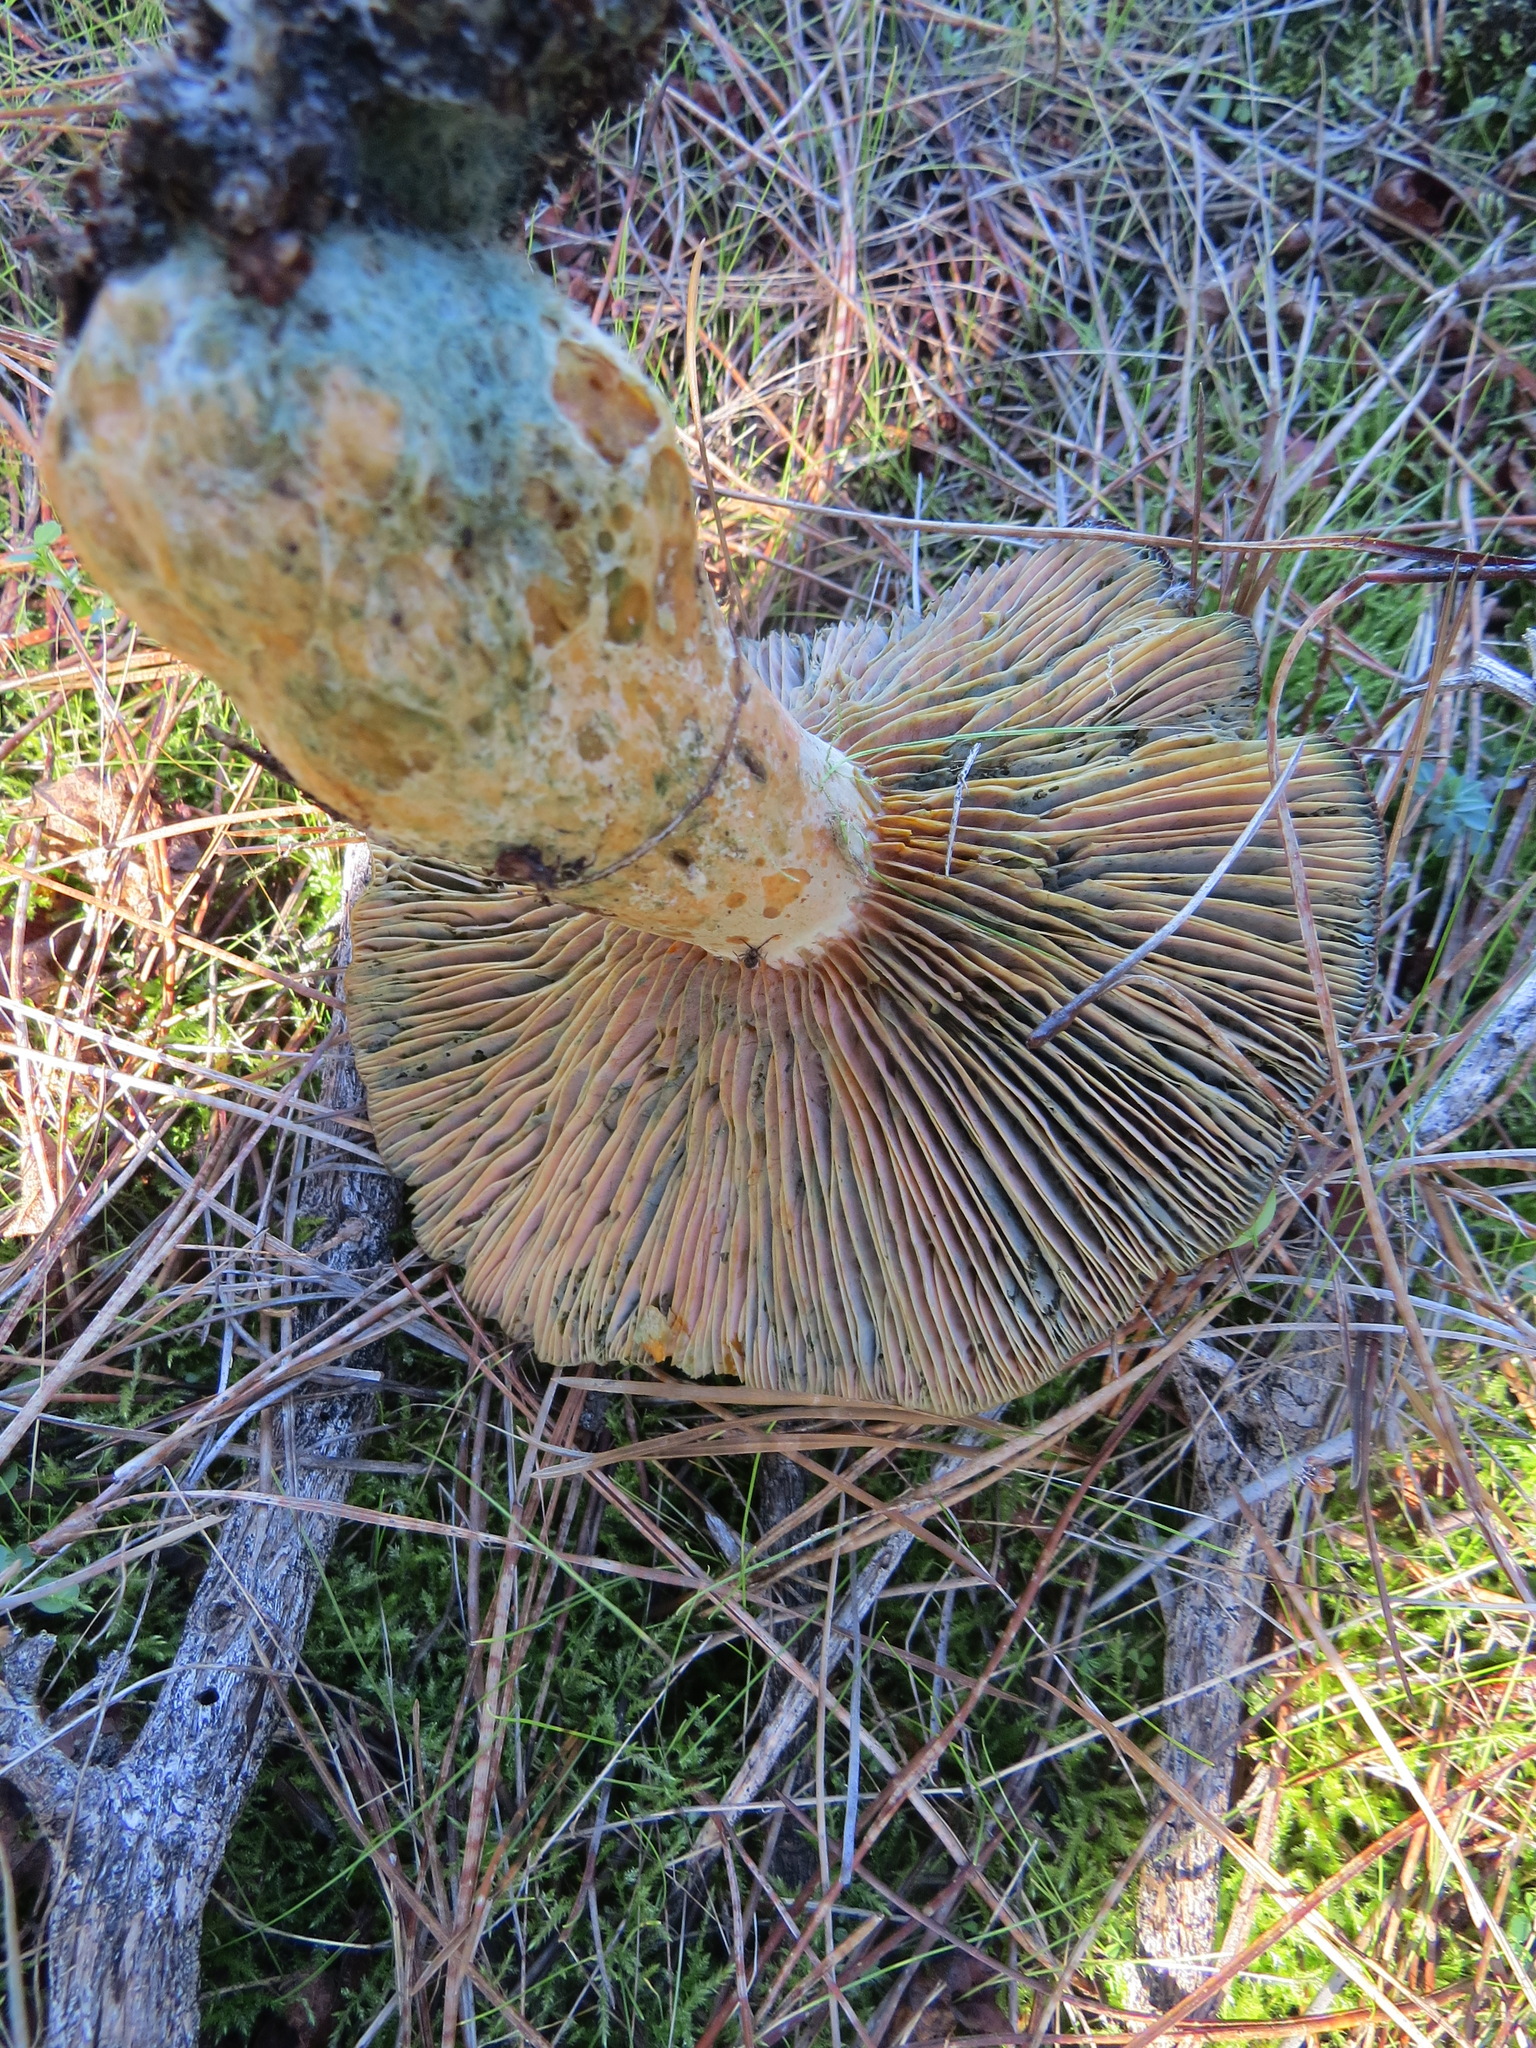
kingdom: Fungi
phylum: Basidiomycota
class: Agaricomycetes
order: Russulales
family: Russulaceae
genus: Lactarius
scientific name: Lactarius deliciosus
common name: Saffron milk-cap
